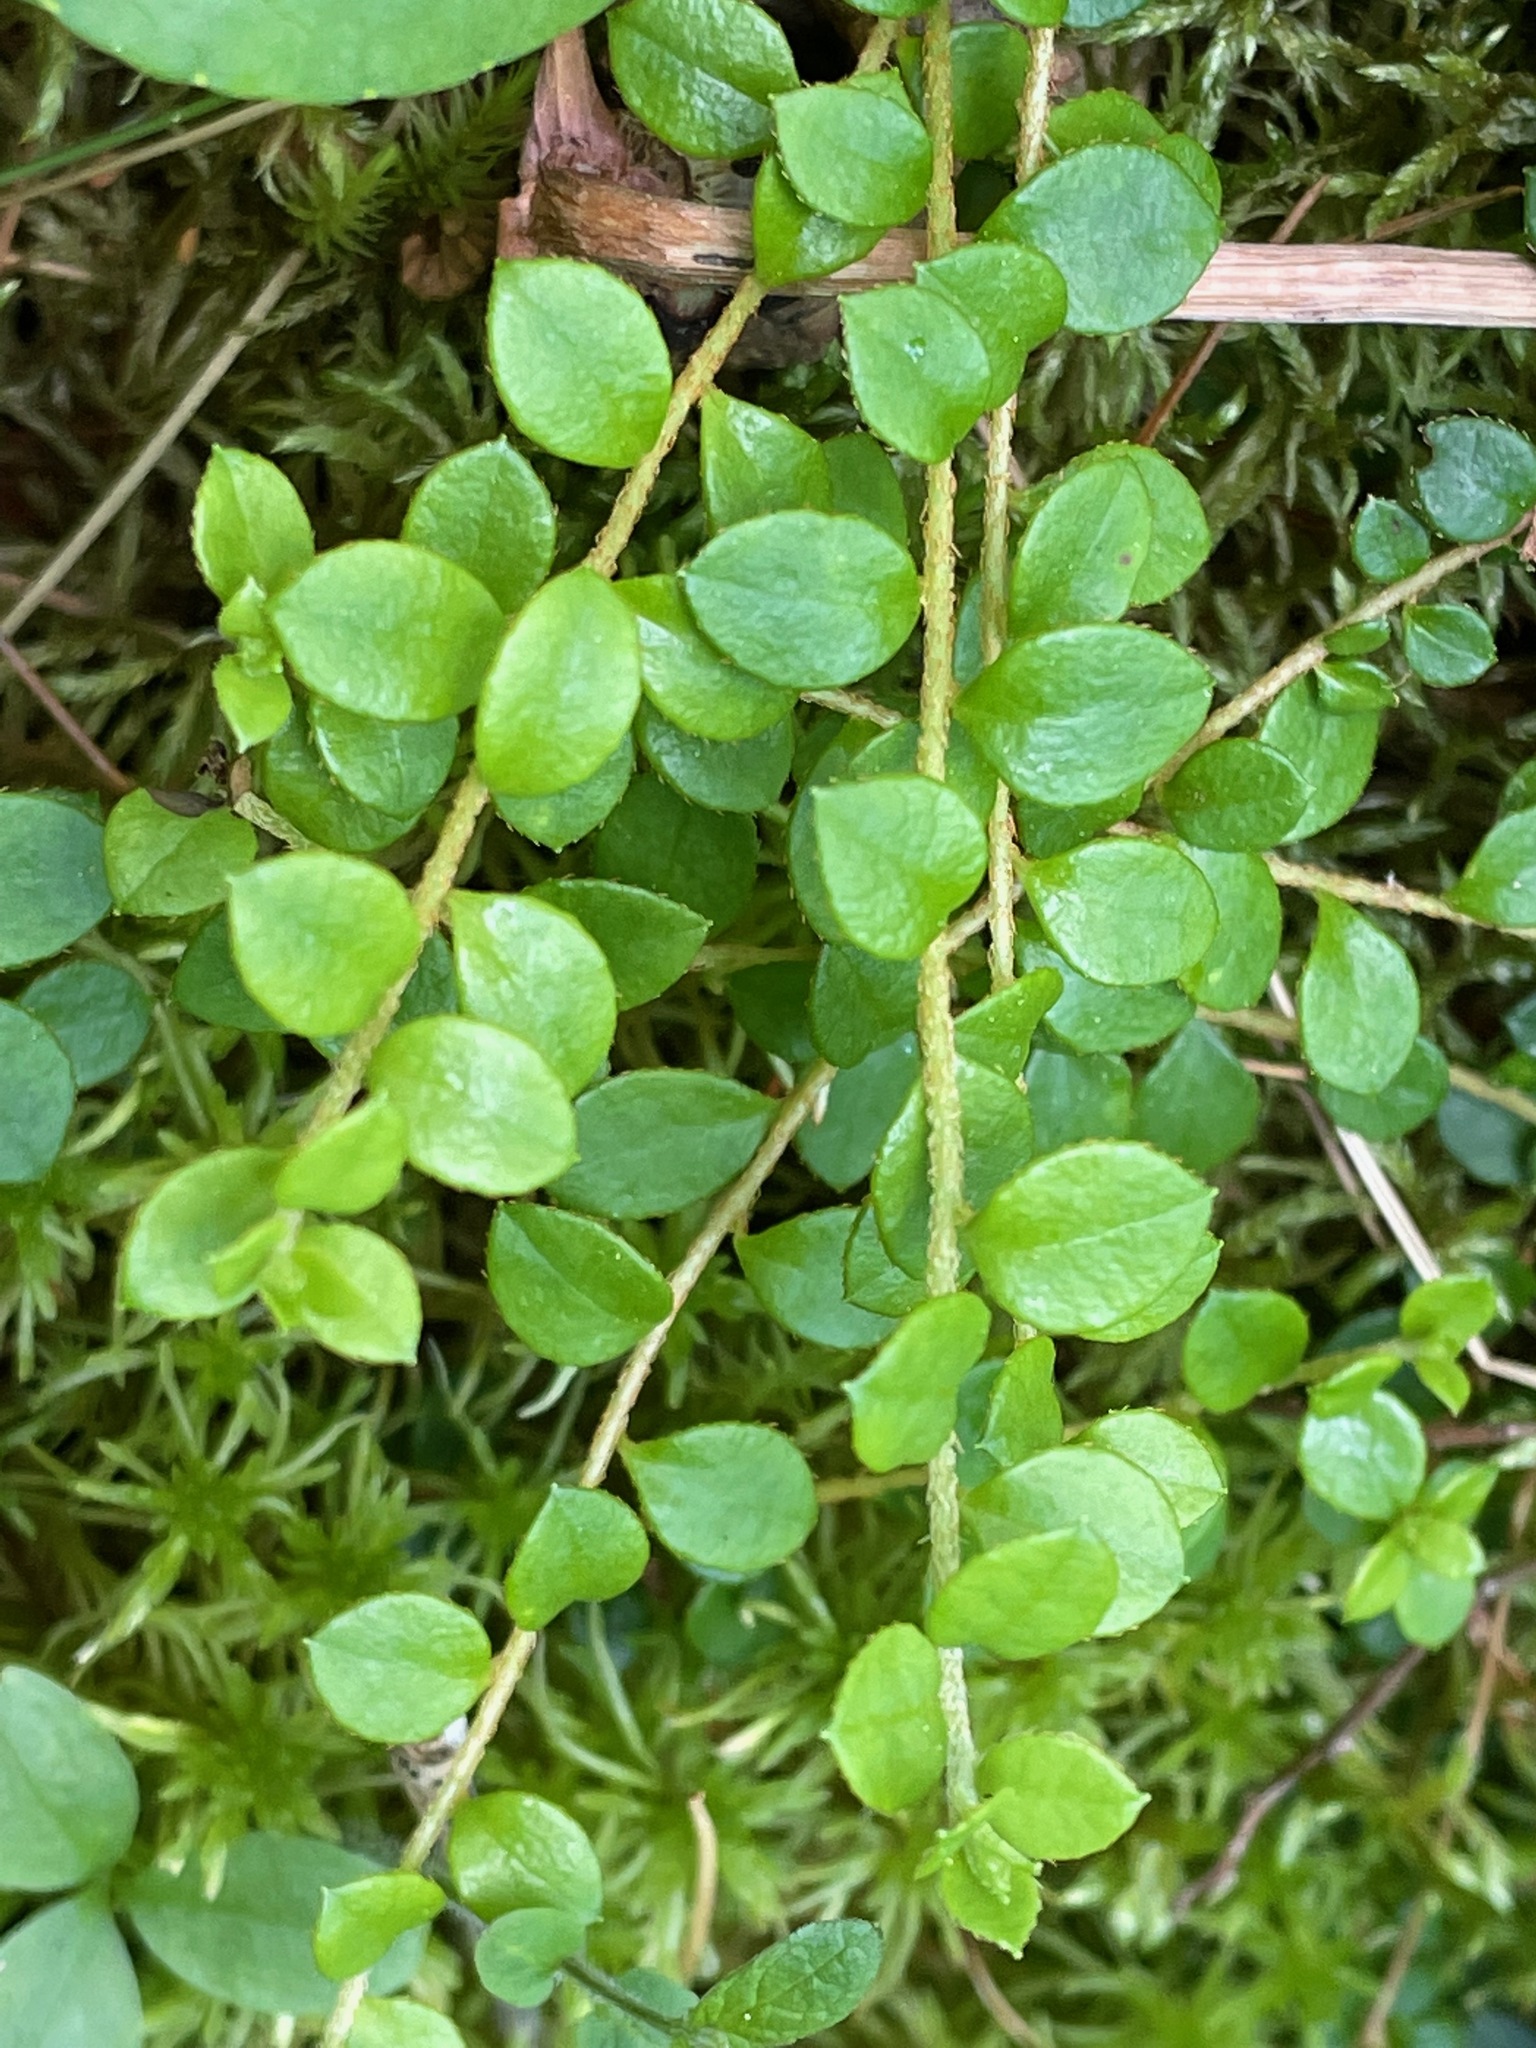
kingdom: Plantae
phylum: Tracheophyta
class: Magnoliopsida
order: Ericales
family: Ericaceae
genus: Gaultheria
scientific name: Gaultheria hispidula
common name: Cancer wintergreen
